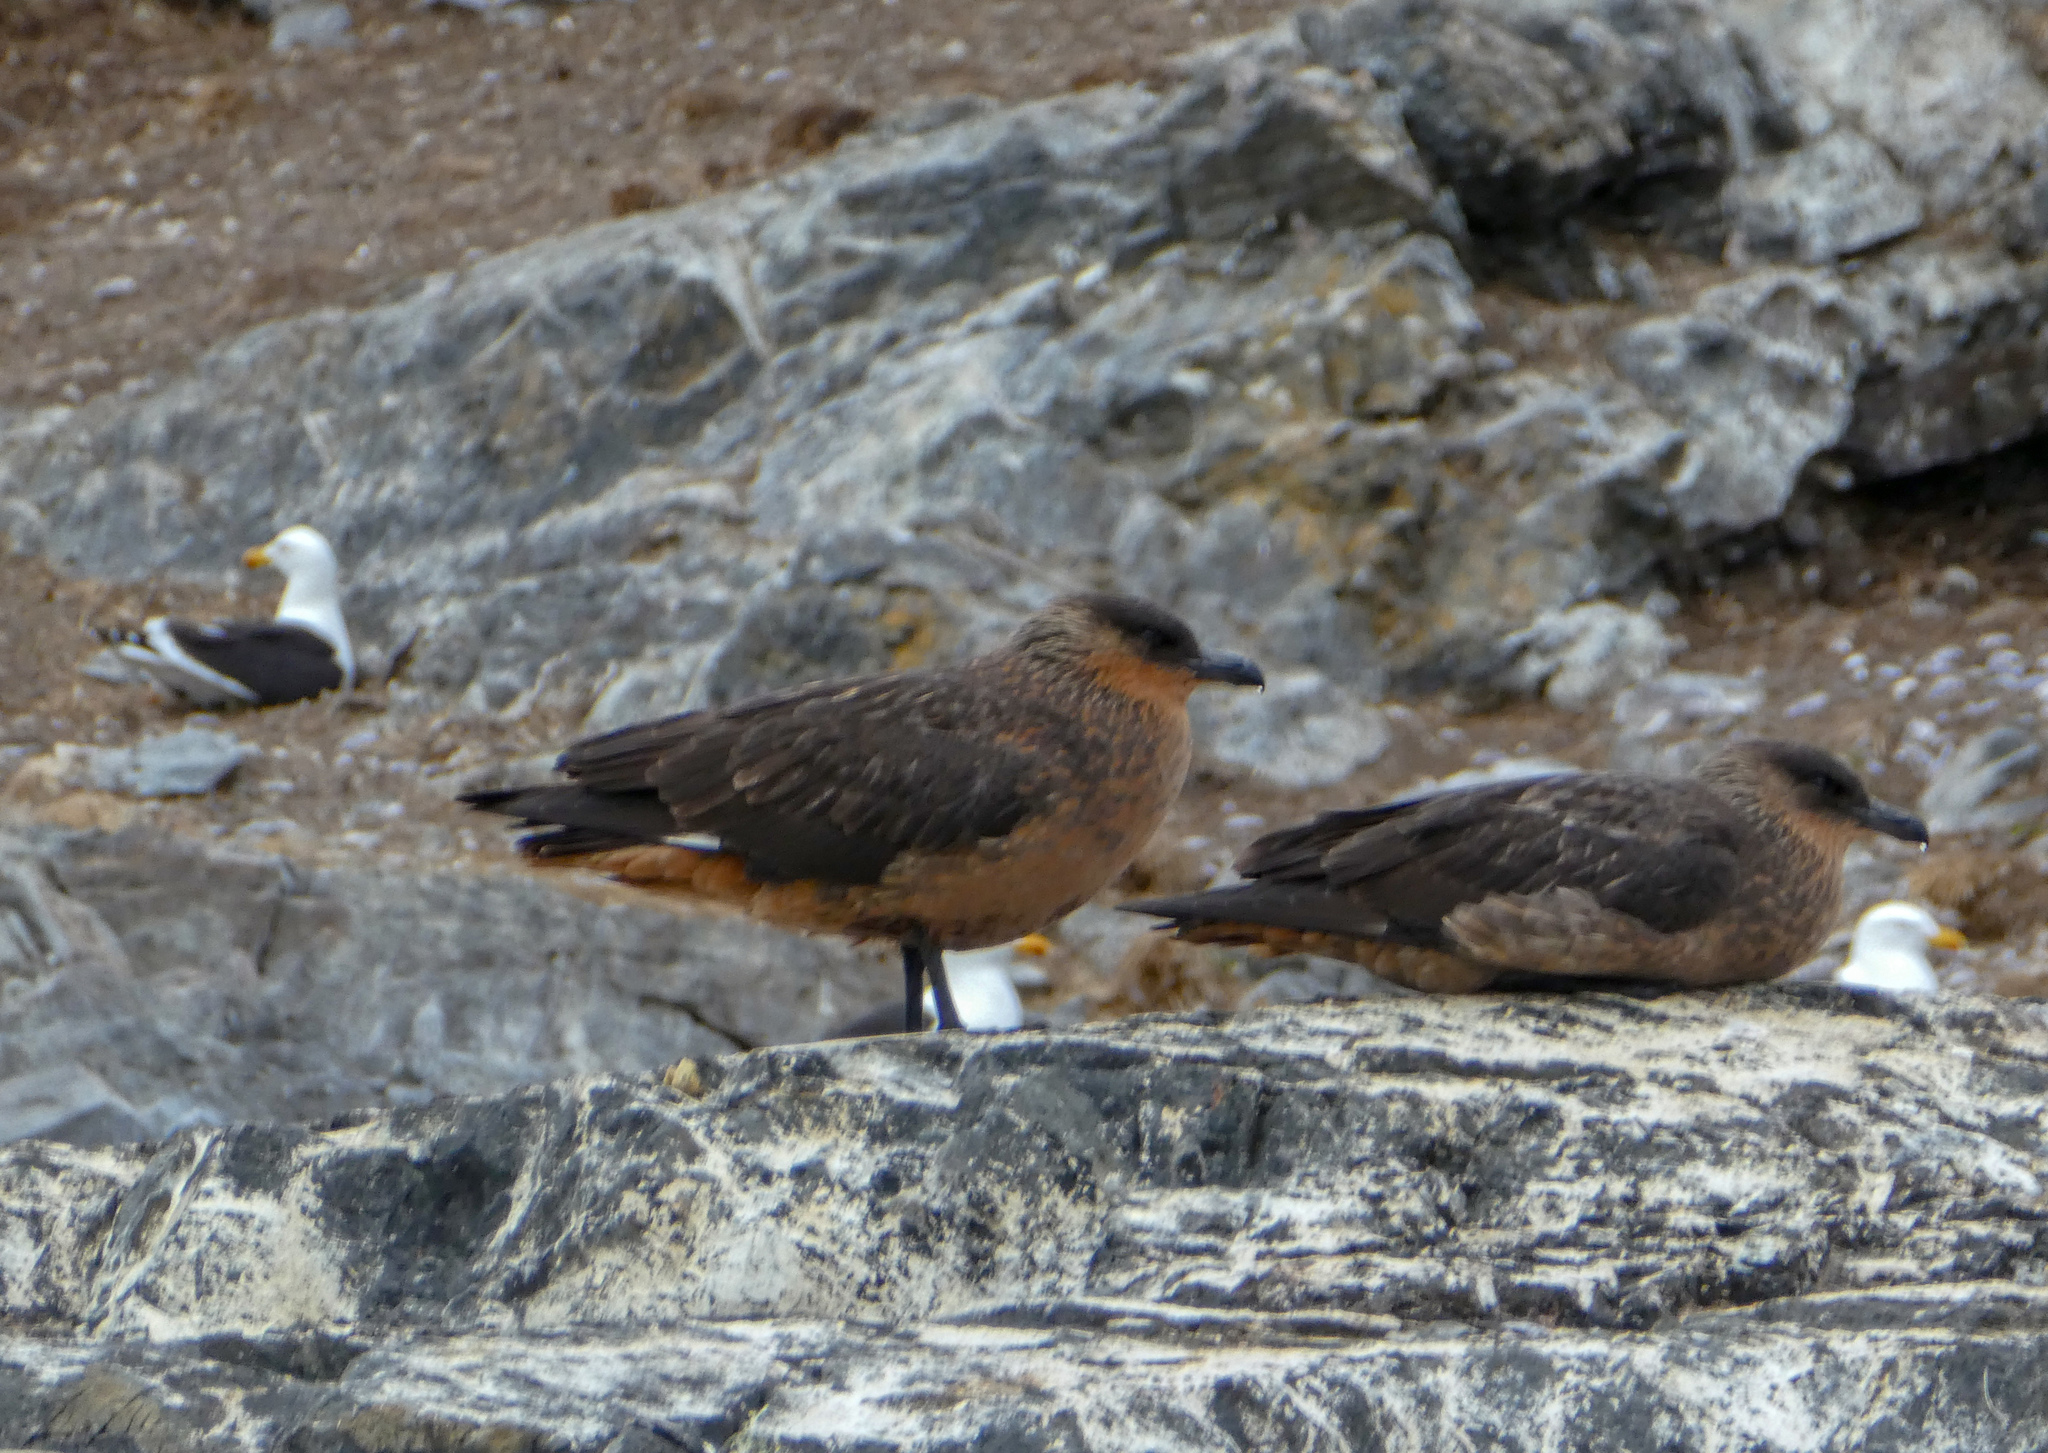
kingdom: Animalia
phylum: Chordata
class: Aves
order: Charadriiformes
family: Stercorariidae
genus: Stercorarius
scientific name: Stercorarius chilensis
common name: Chilean skua
